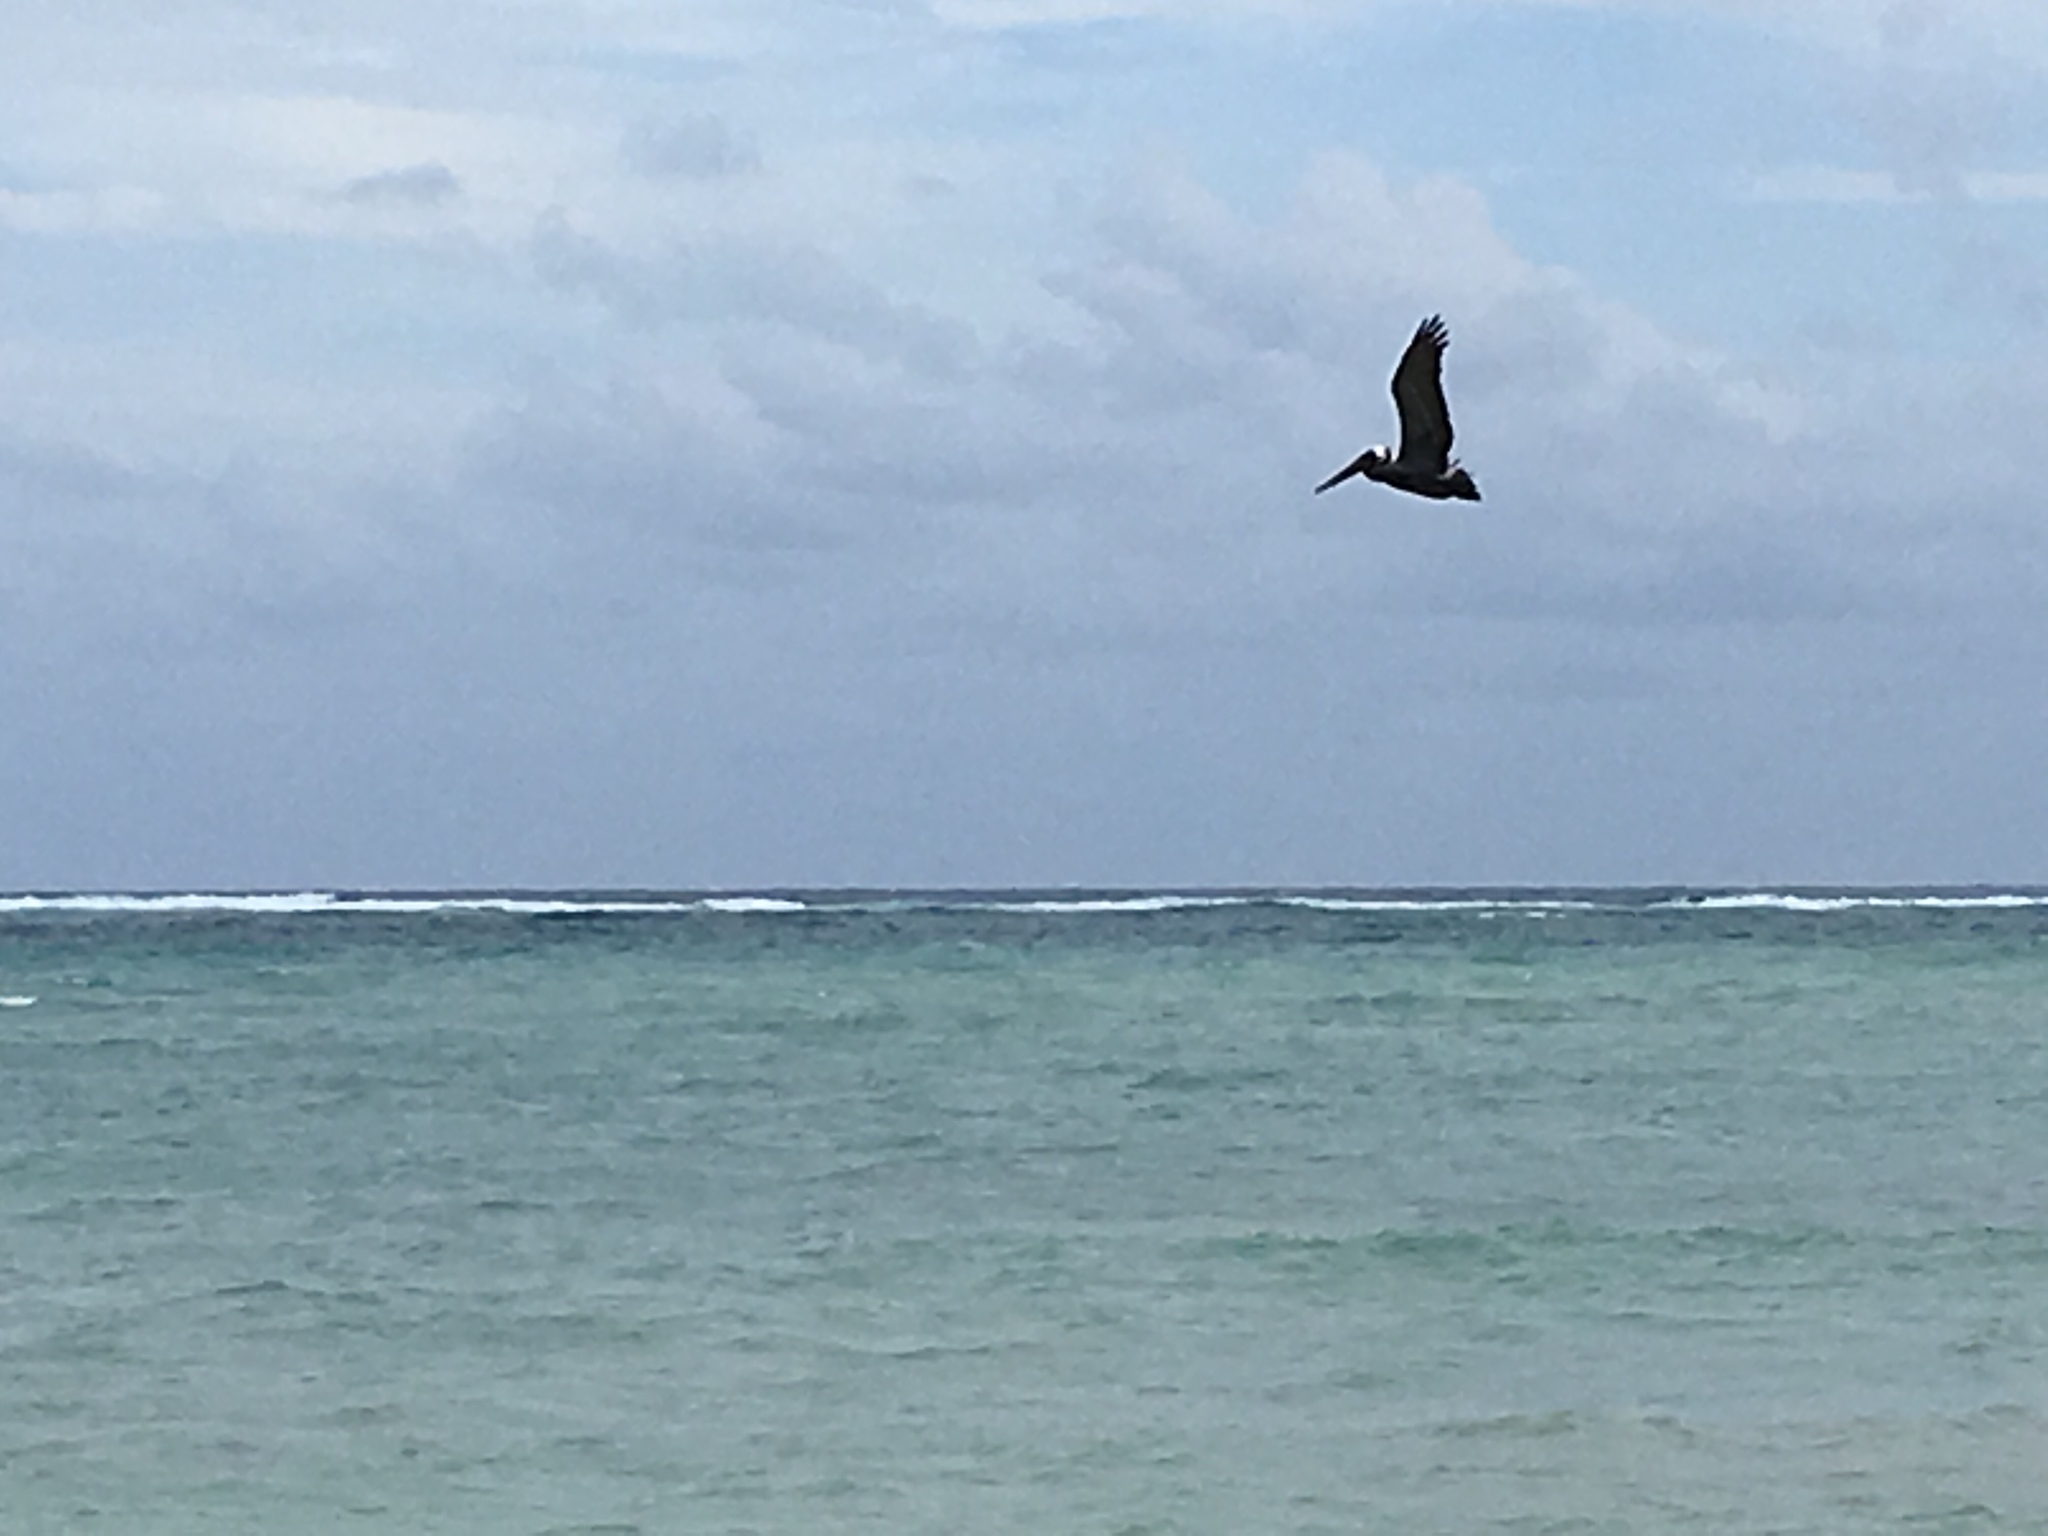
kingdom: Animalia
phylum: Chordata
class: Aves
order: Pelecaniformes
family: Pelecanidae
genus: Pelecanus
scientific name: Pelecanus occidentalis
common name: Brown pelican
